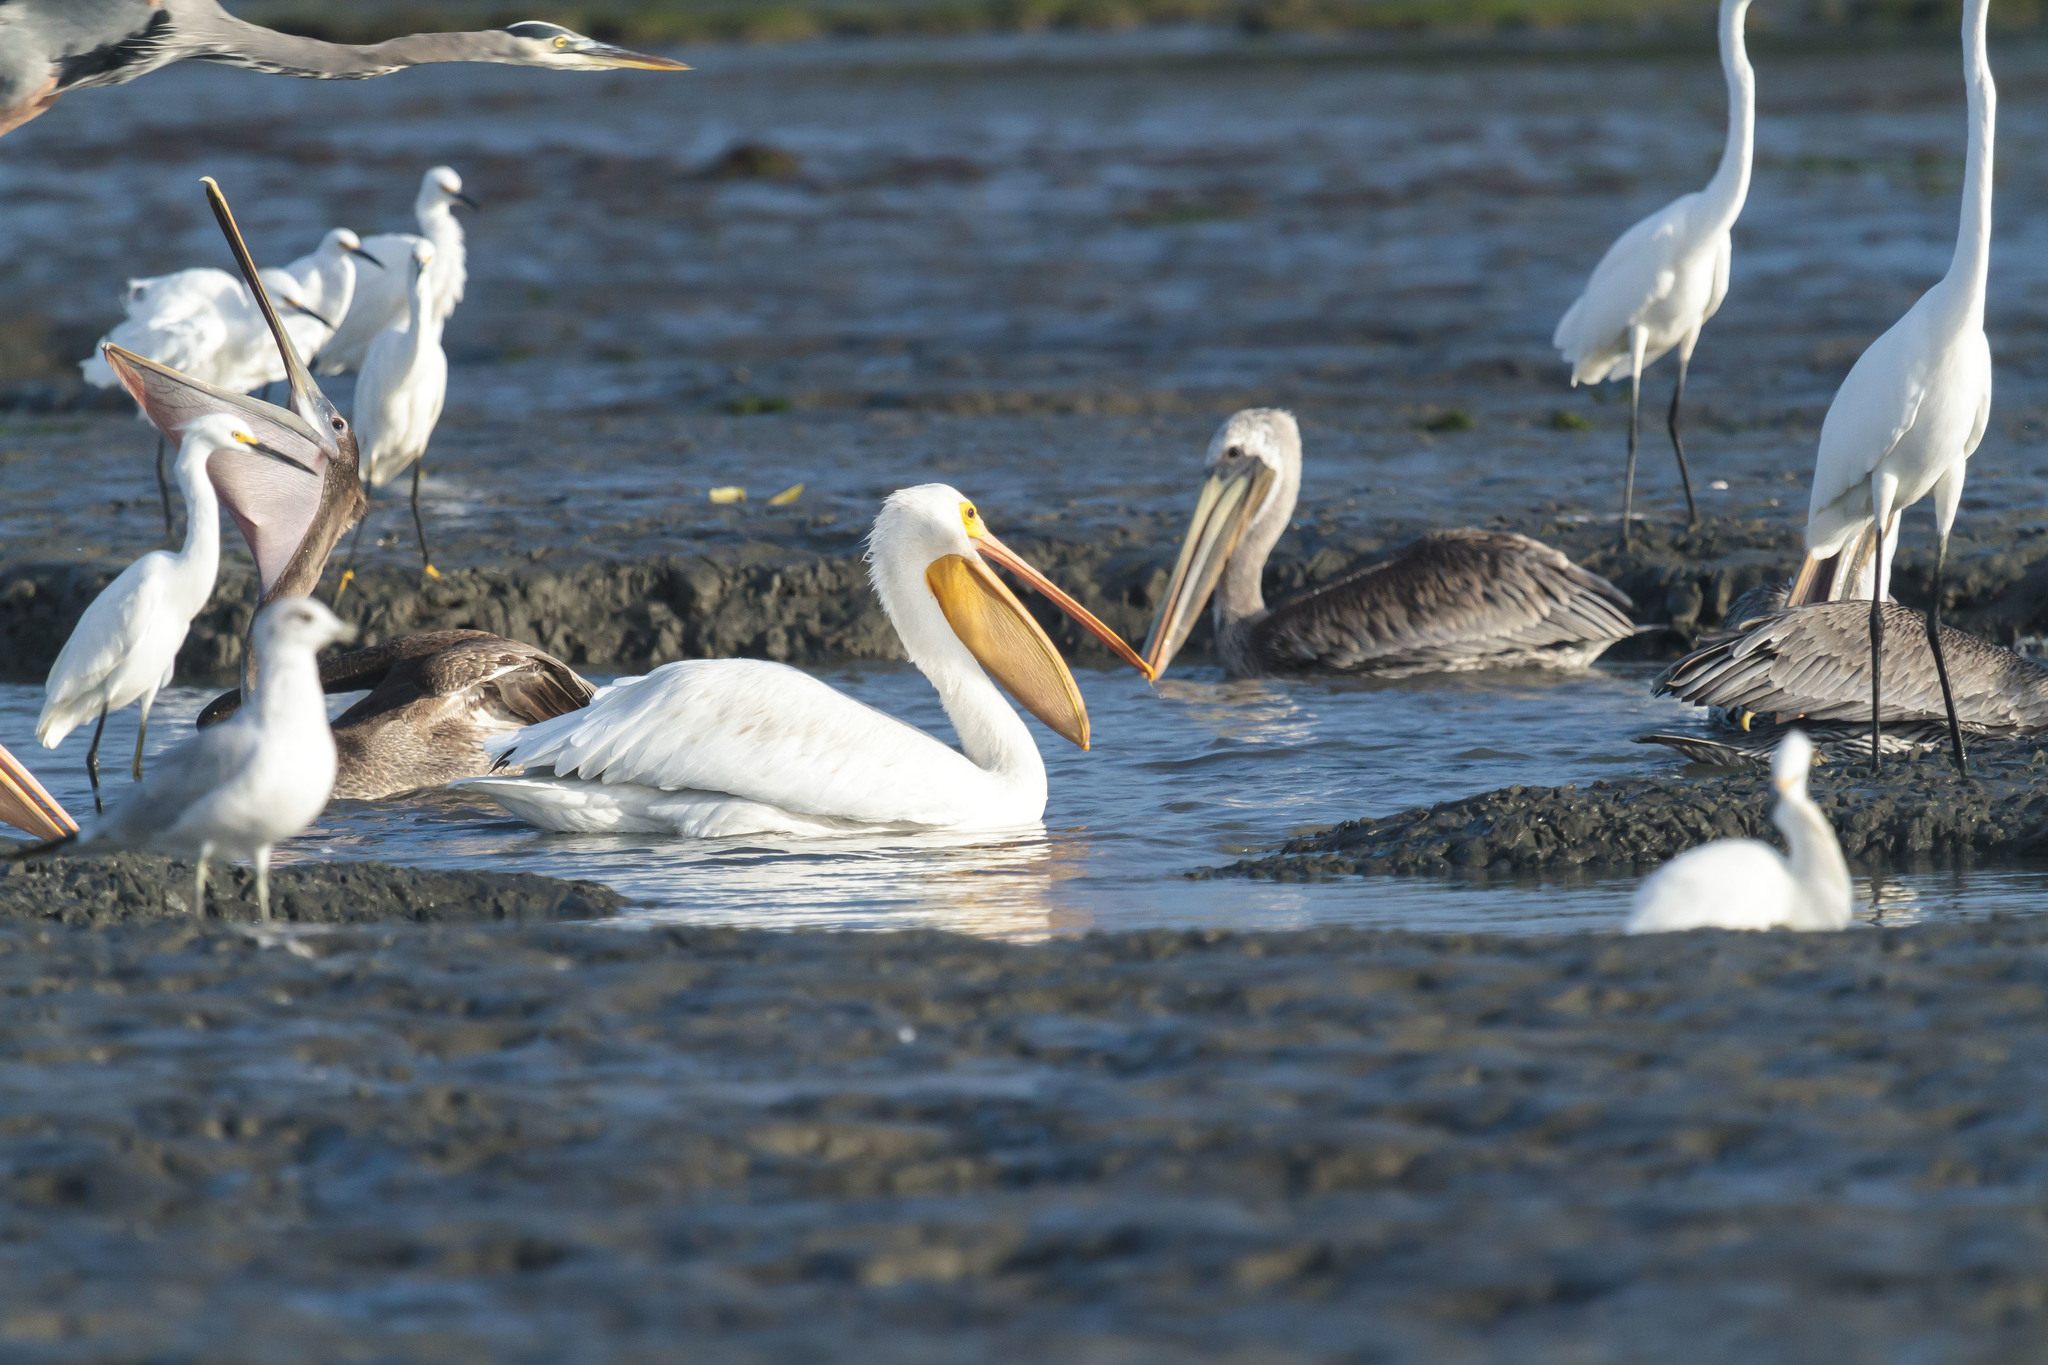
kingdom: Animalia
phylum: Chordata
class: Aves
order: Pelecaniformes
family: Pelecanidae
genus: Pelecanus
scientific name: Pelecanus erythrorhynchos
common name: American white pelican
